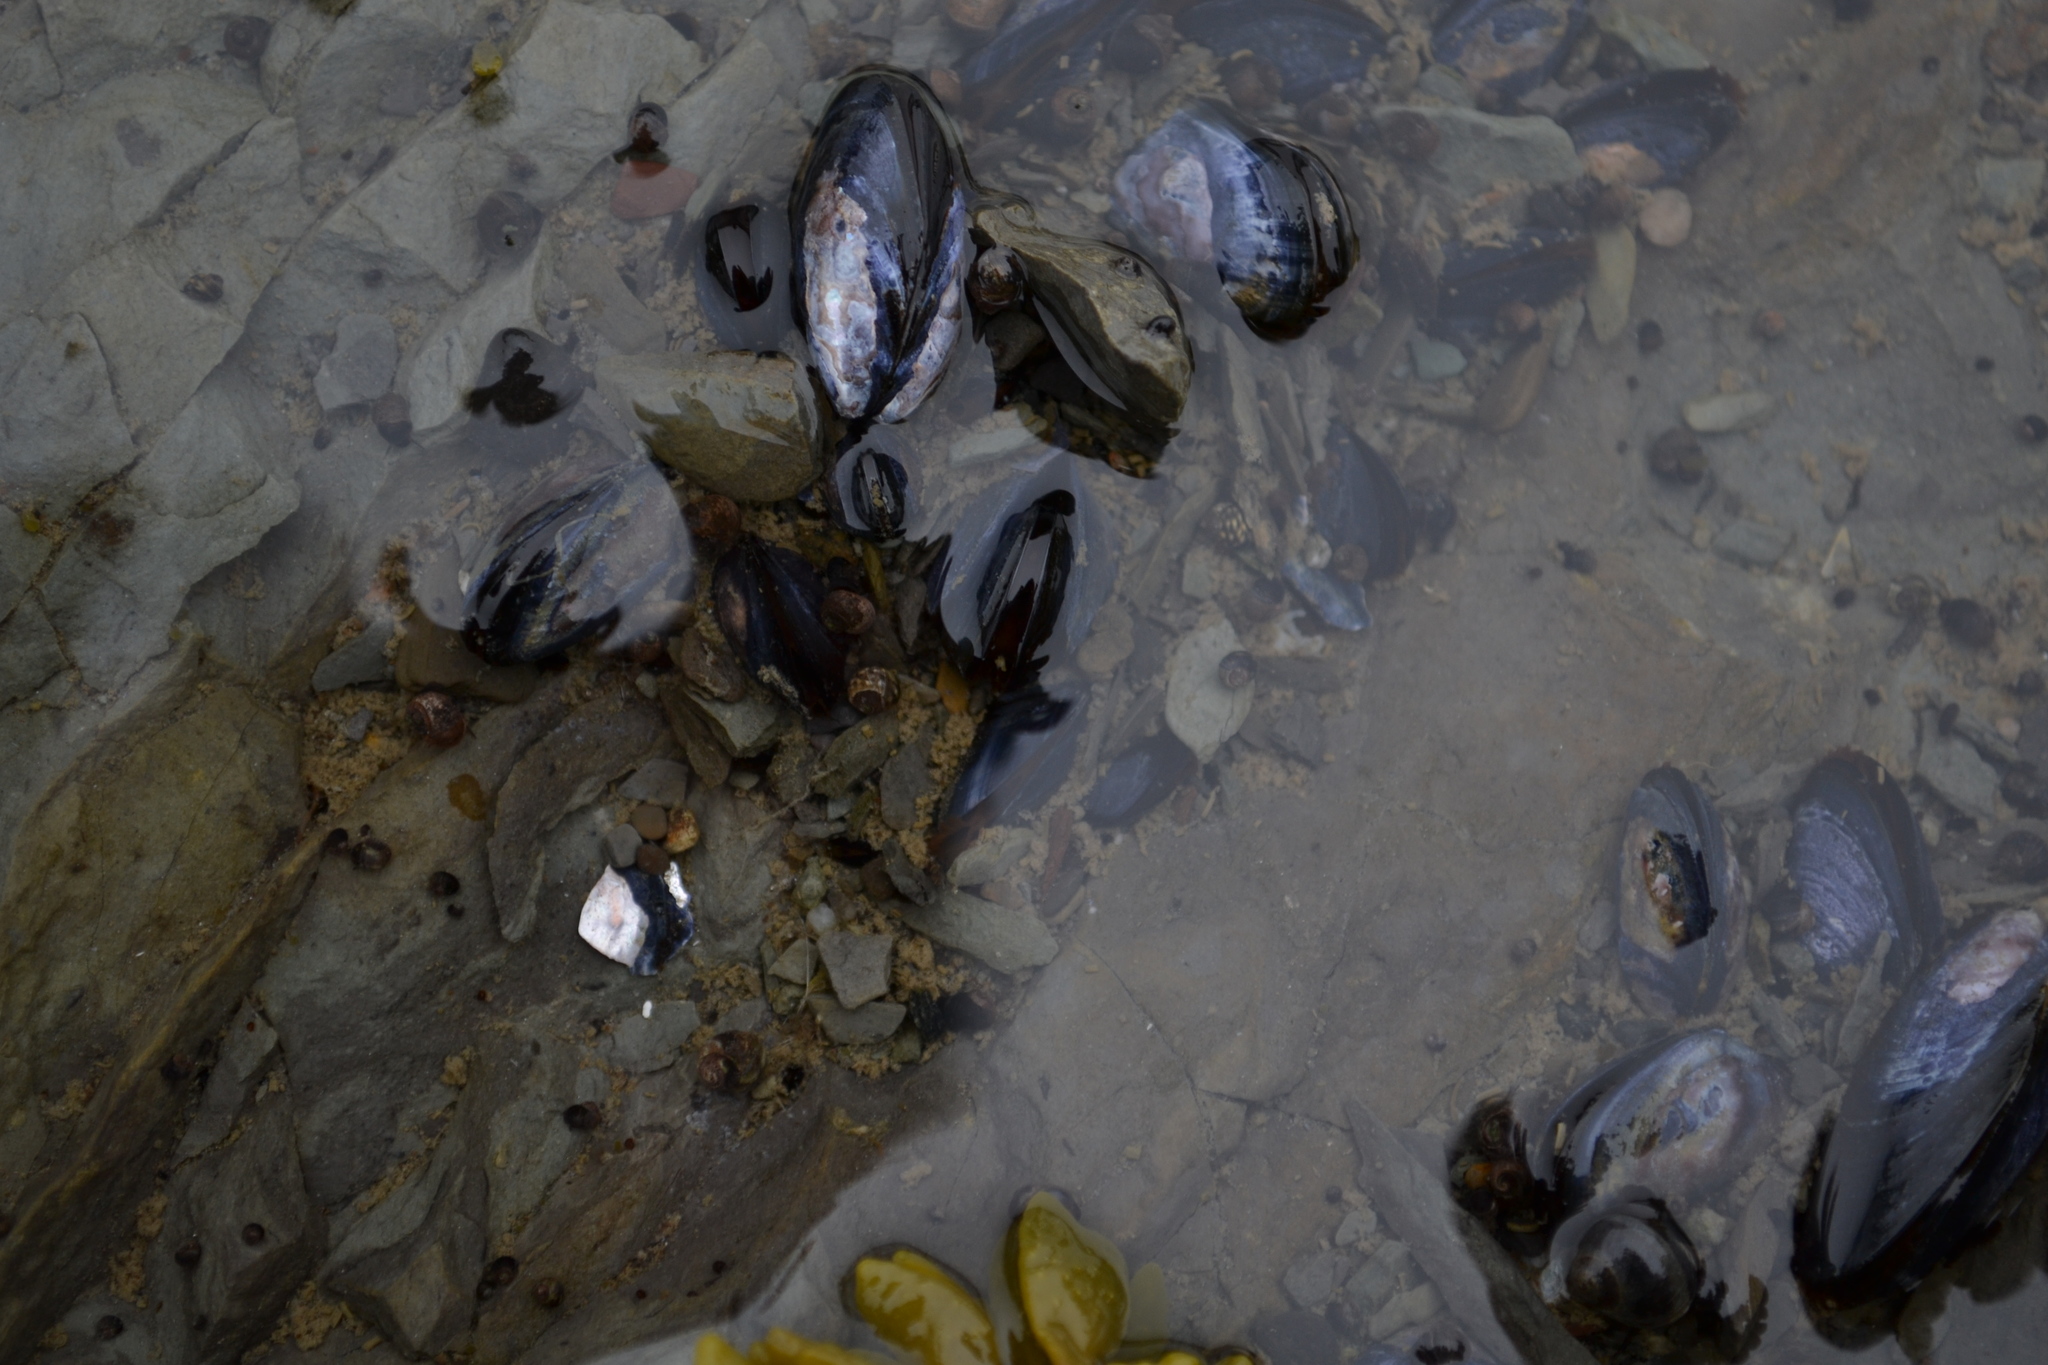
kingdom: Animalia
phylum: Mollusca
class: Bivalvia
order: Mytilida
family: Mytilidae
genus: Mytilus
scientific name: Mytilus
